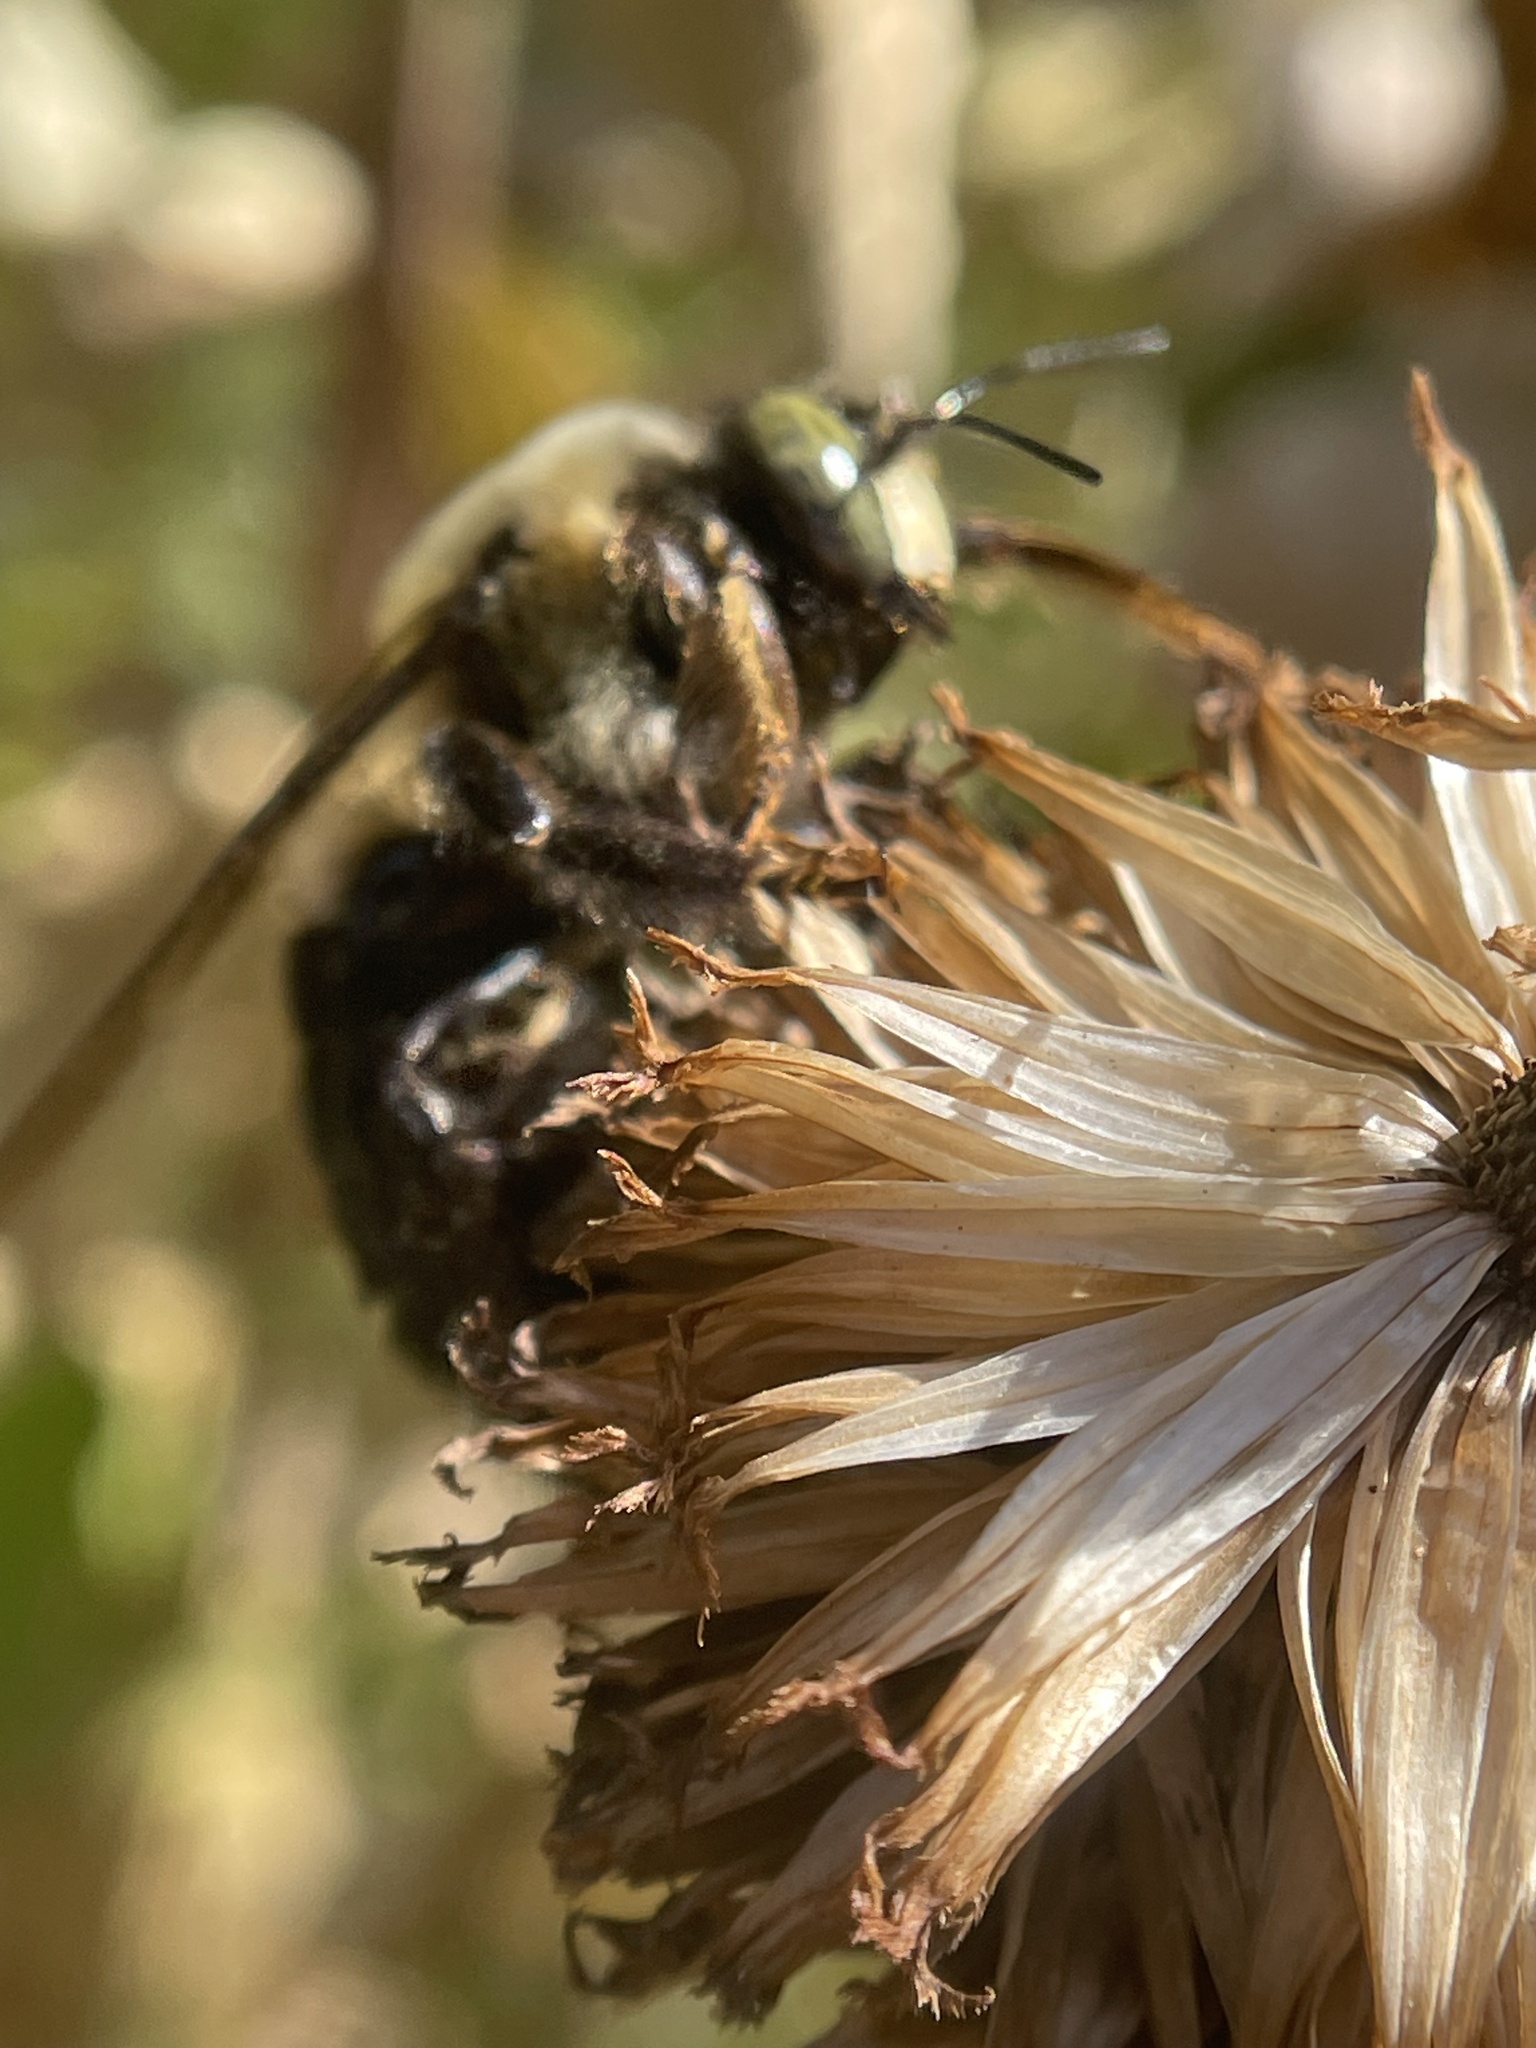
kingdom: Animalia
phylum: Arthropoda
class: Insecta
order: Hymenoptera
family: Apidae
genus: Xylocopa
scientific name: Xylocopa virginica
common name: Carpenter bee
